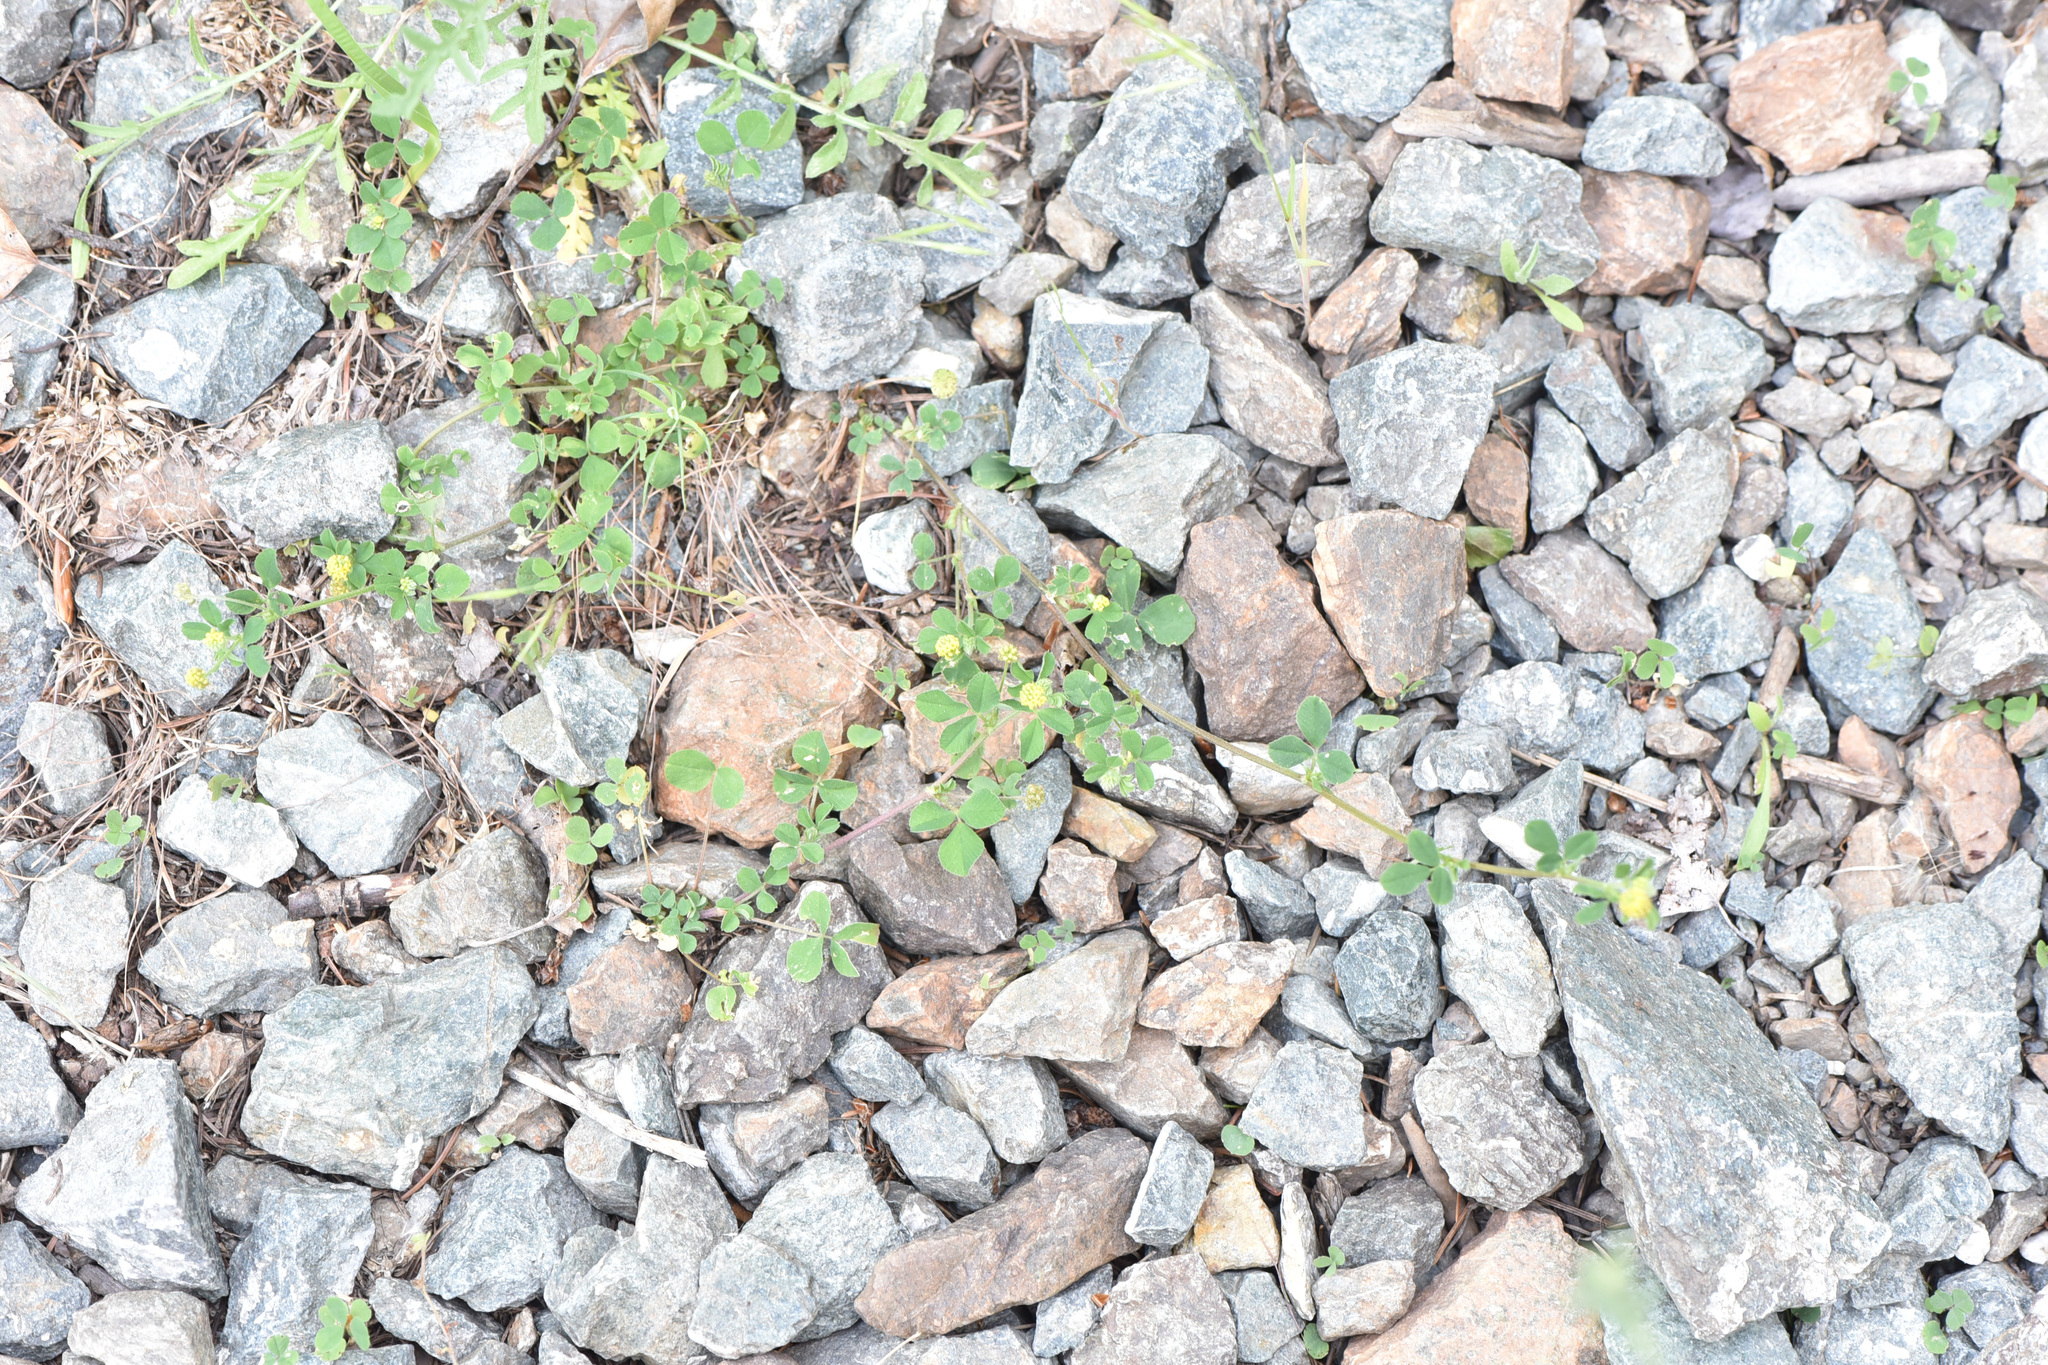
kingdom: Plantae
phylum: Tracheophyta
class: Magnoliopsida
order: Fabales
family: Fabaceae
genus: Medicago
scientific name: Medicago lupulina
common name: Black medick
